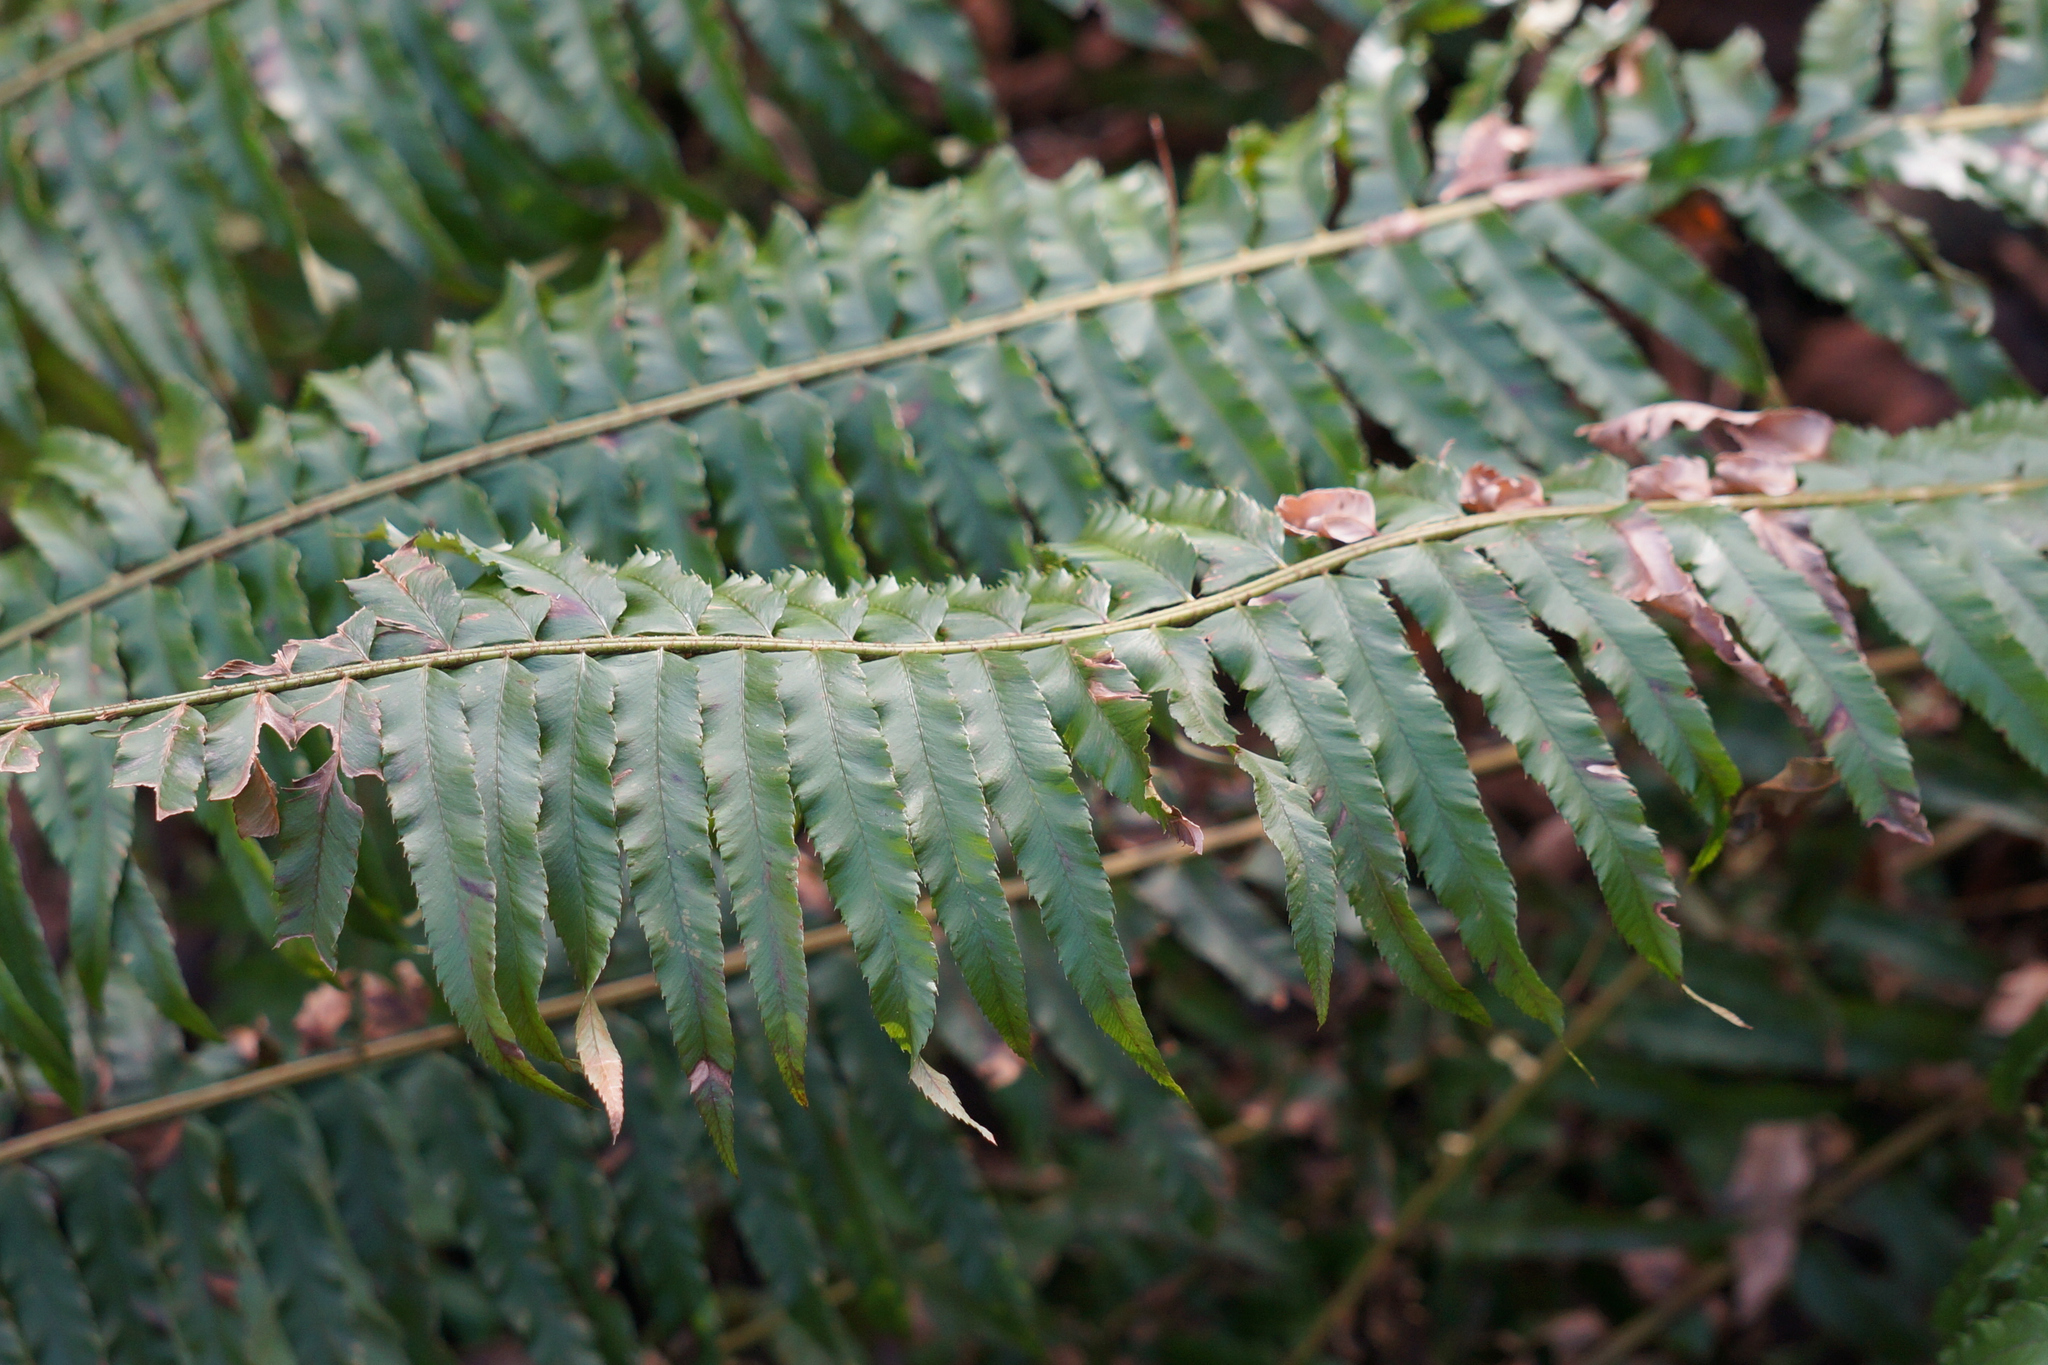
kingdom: Plantae
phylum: Tracheophyta
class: Polypodiopsida
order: Polypodiales
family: Dryopteridaceae
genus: Polystichum
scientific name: Polystichum munitum
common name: Western sword-fern
